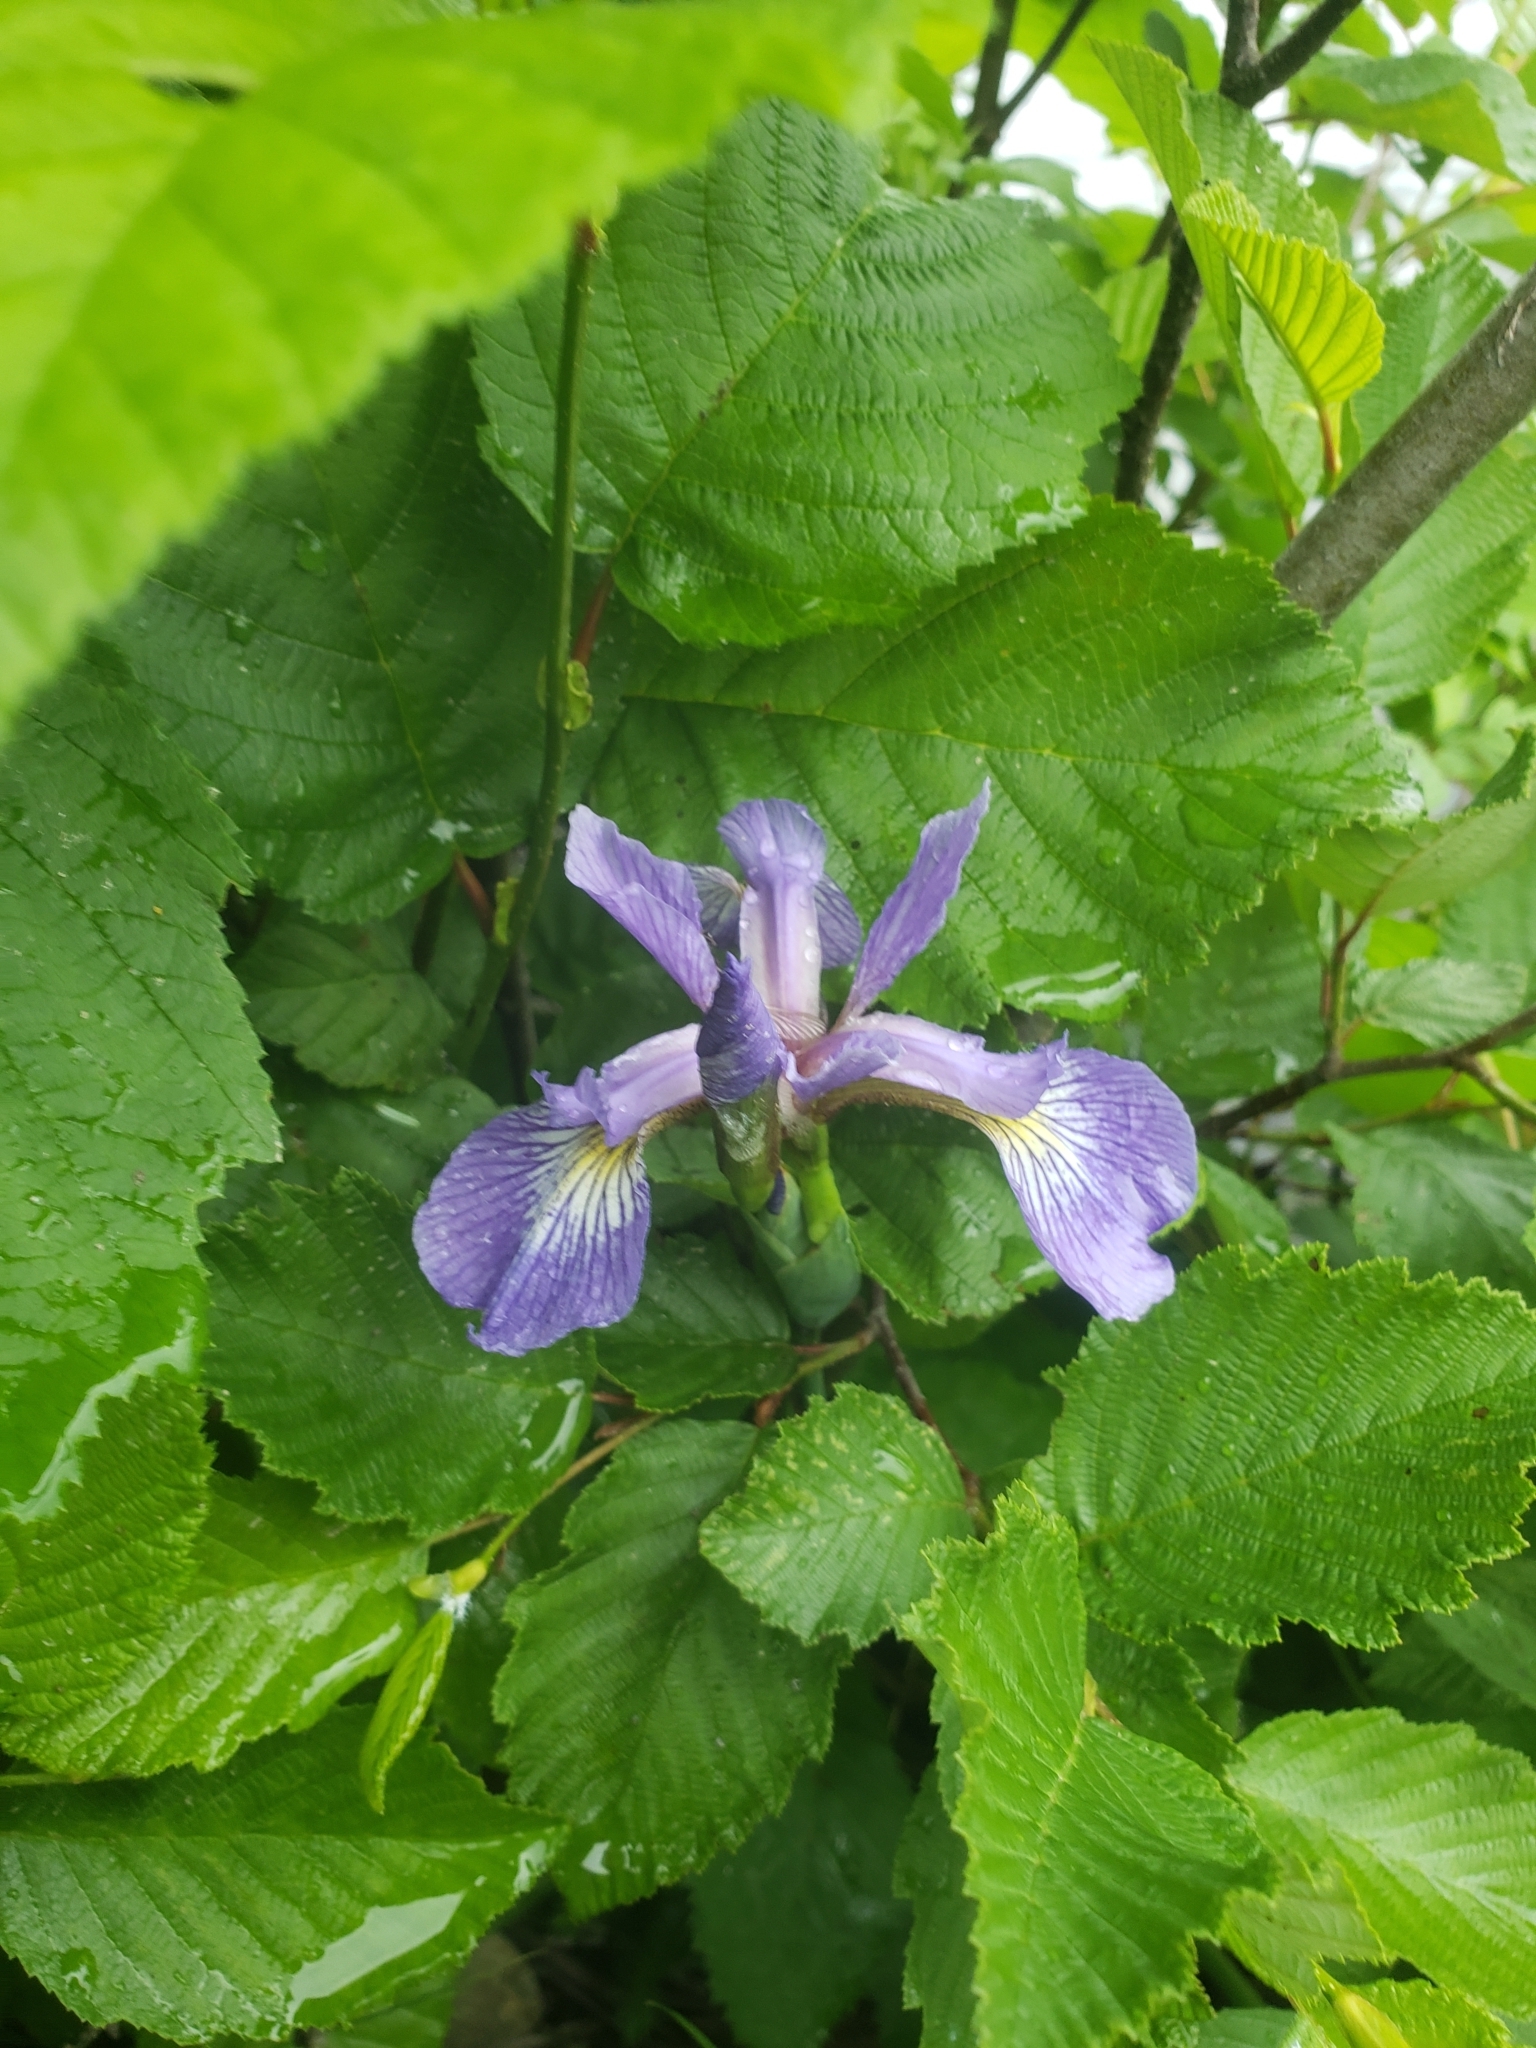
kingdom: Plantae
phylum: Tracheophyta
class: Liliopsida
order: Asparagales
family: Iridaceae
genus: Iris
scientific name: Iris versicolor
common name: Purple iris
